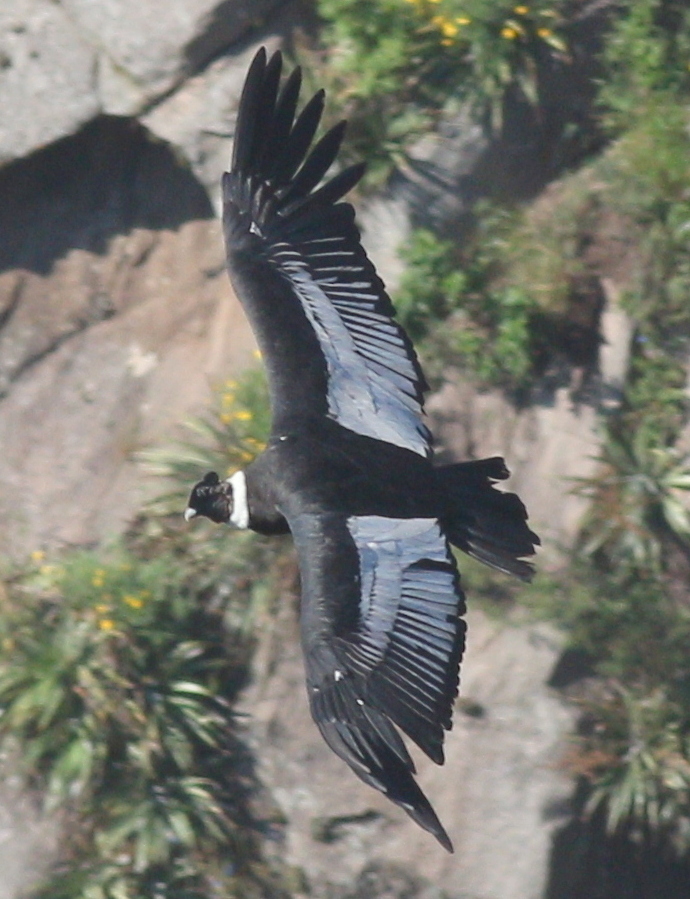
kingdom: Animalia
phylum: Chordata
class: Aves
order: Accipitriformes
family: Cathartidae
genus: Vultur
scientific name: Vultur gryphus
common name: Andean condor
